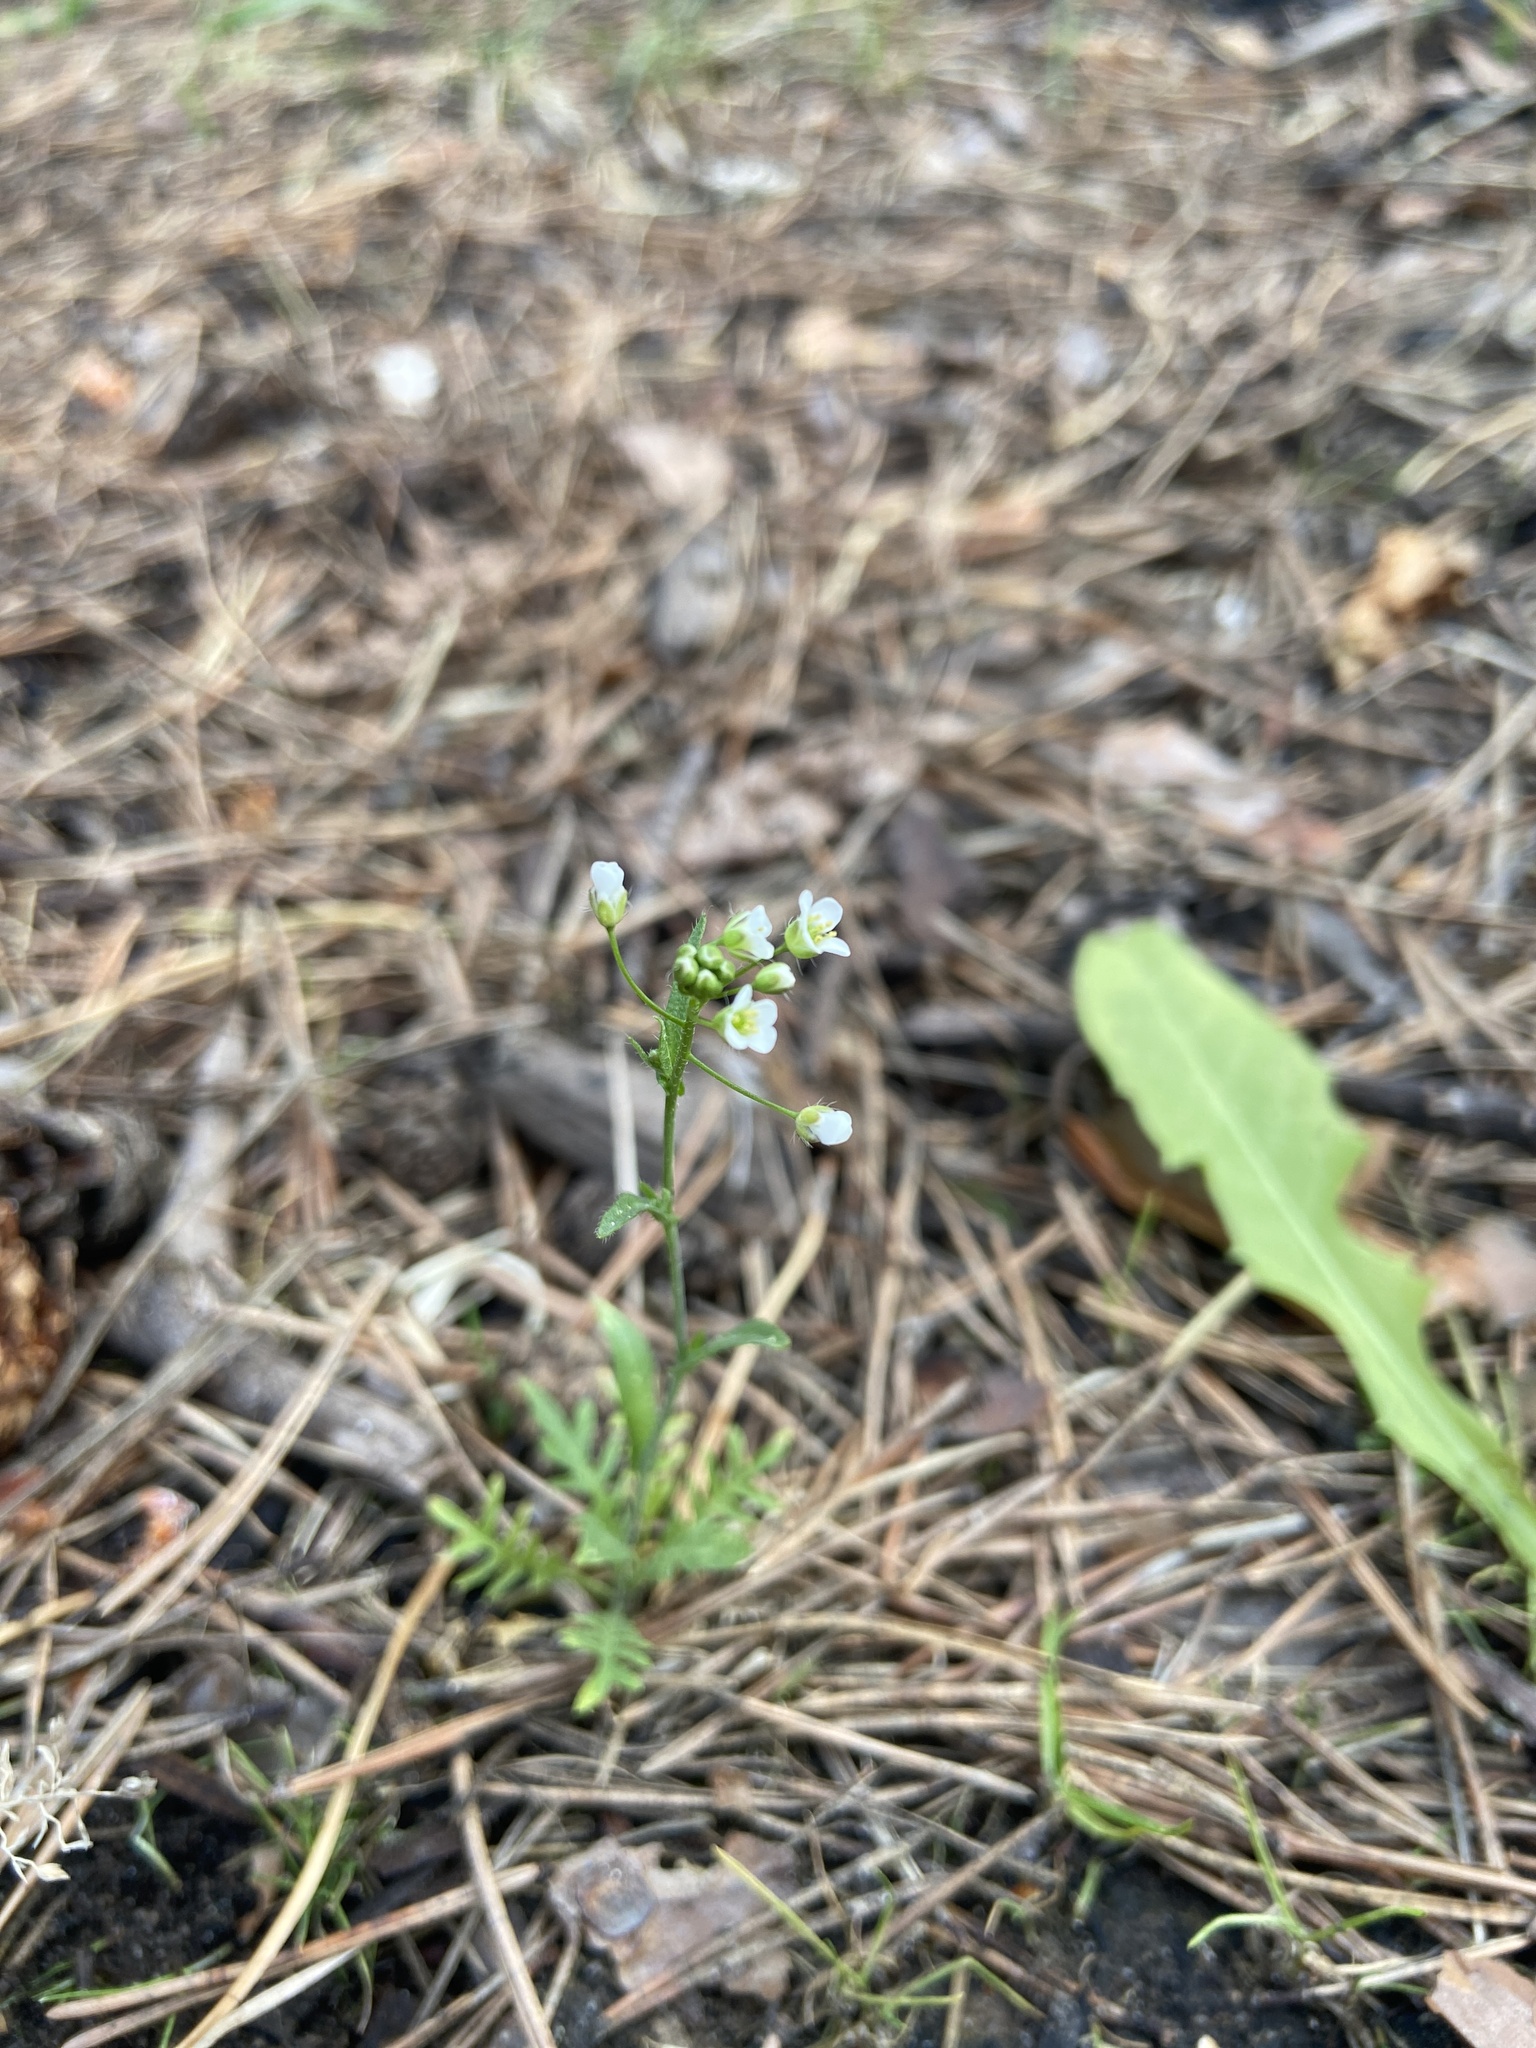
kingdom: Plantae
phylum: Tracheophyta
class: Magnoliopsida
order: Brassicales
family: Brassicaceae
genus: Capsella
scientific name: Capsella bursa-pastoris
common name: Shepherd's purse
